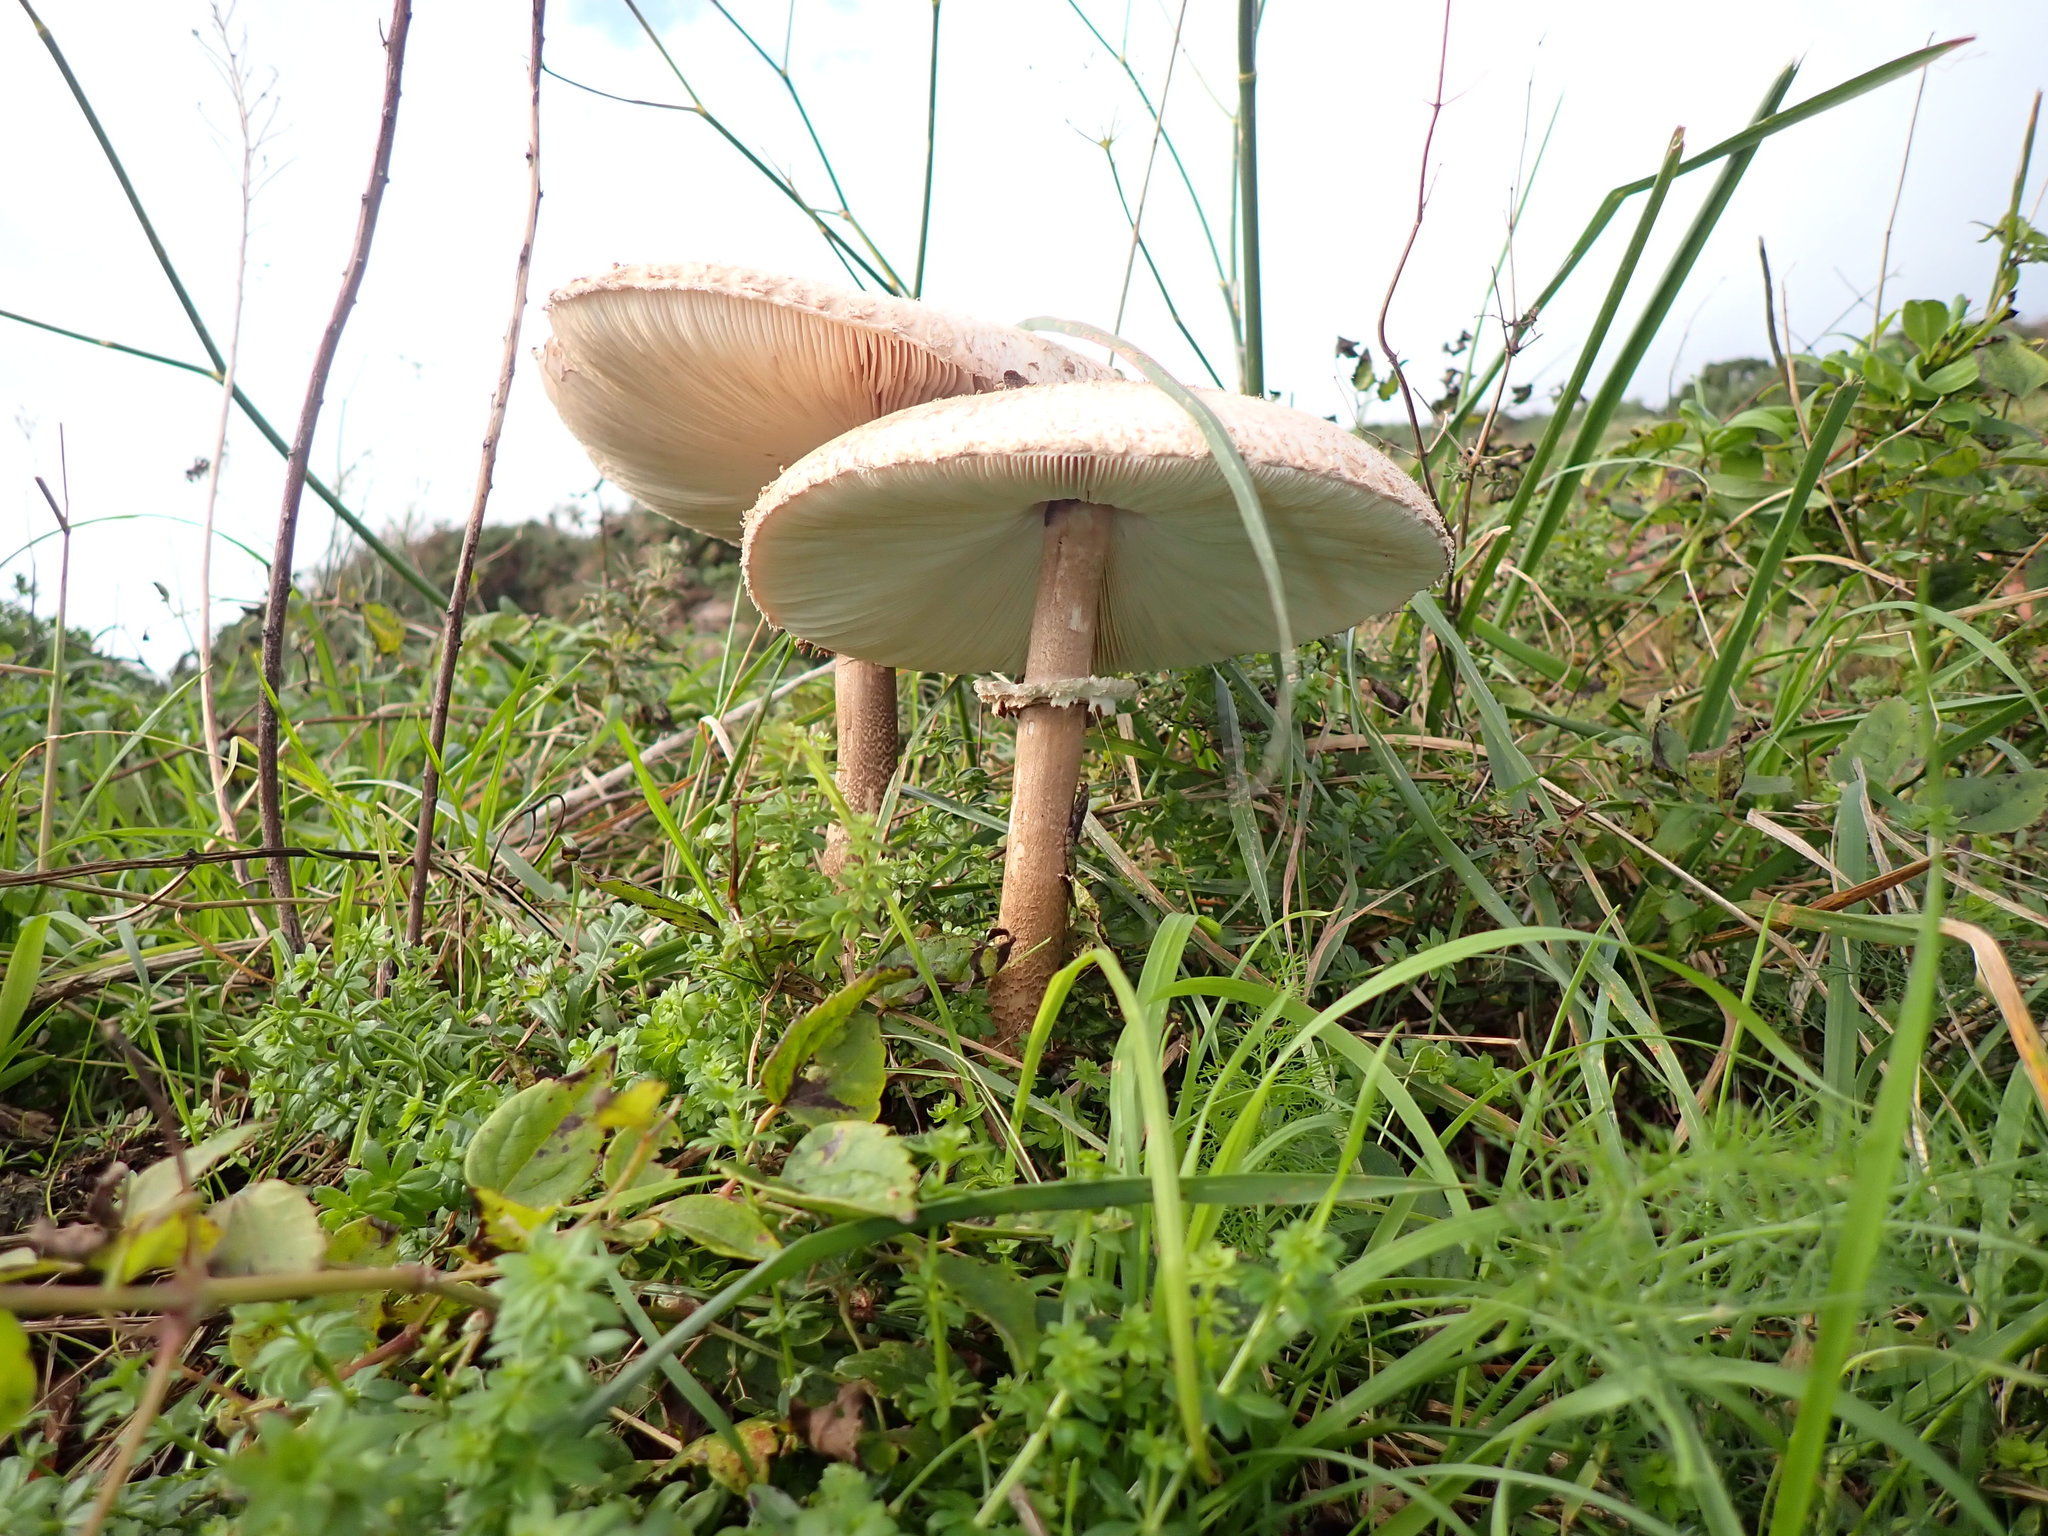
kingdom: Fungi
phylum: Basidiomycota
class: Agaricomycetes
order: Agaricales
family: Agaricaceae
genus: Macrolepiota
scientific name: Macrolepiota procera
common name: Parasol
